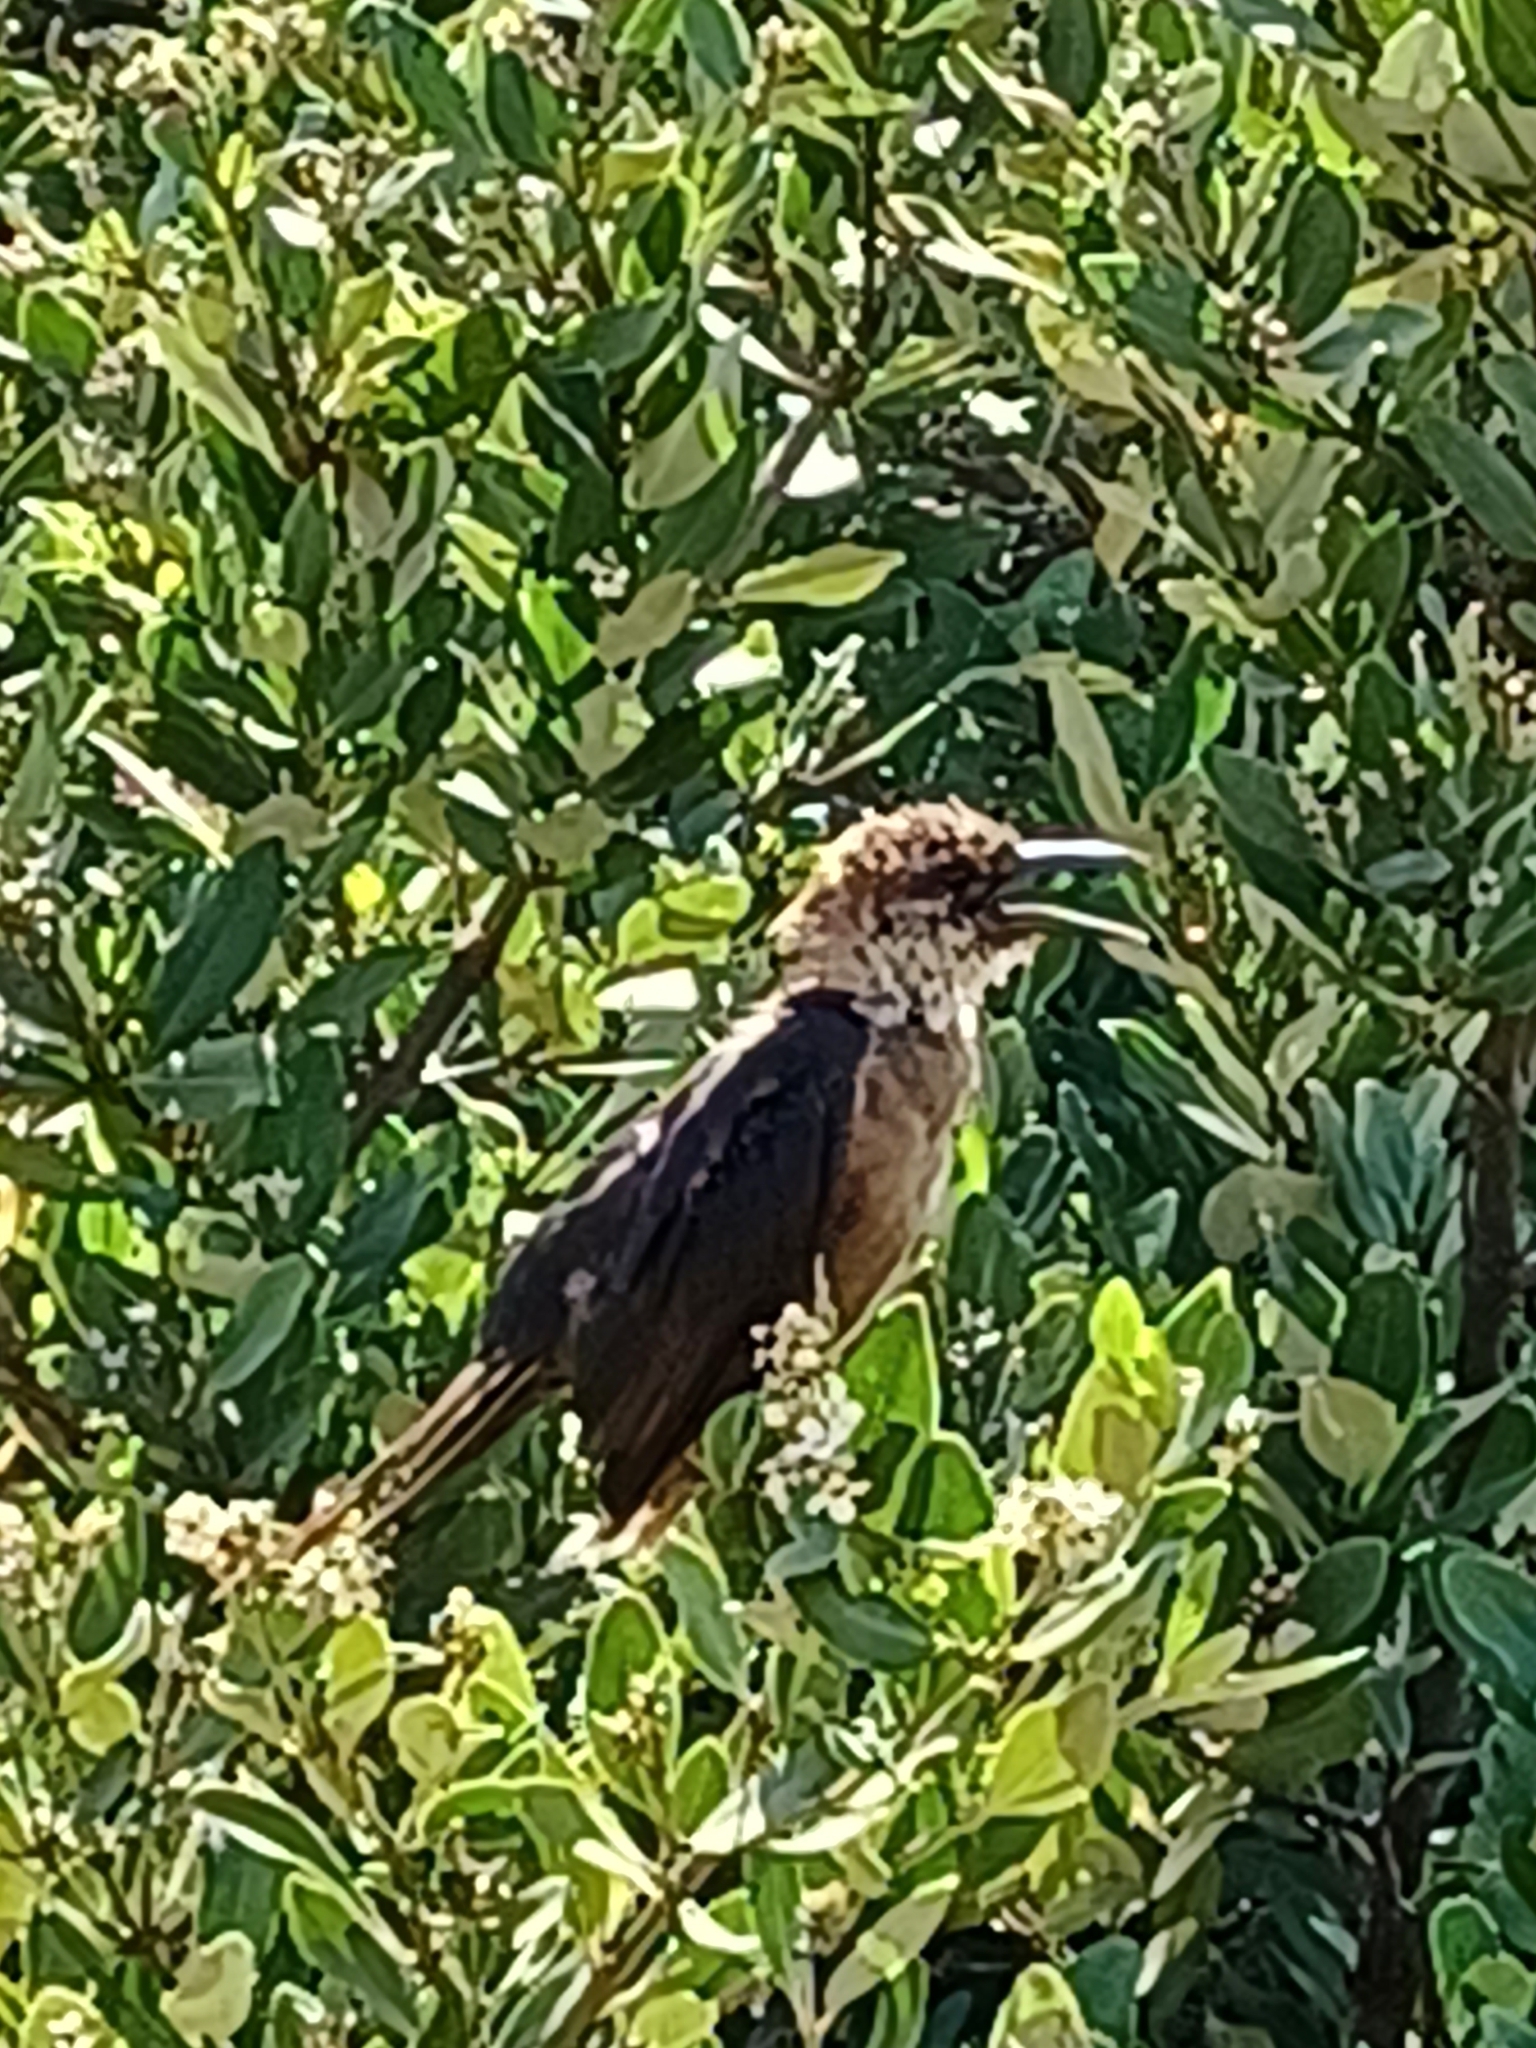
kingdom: Animalia
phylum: Chordata
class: Aves
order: Passeriformes
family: Icteridae
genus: Quiscalus
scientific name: Quiscalus major
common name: Boat-tailed grackle
